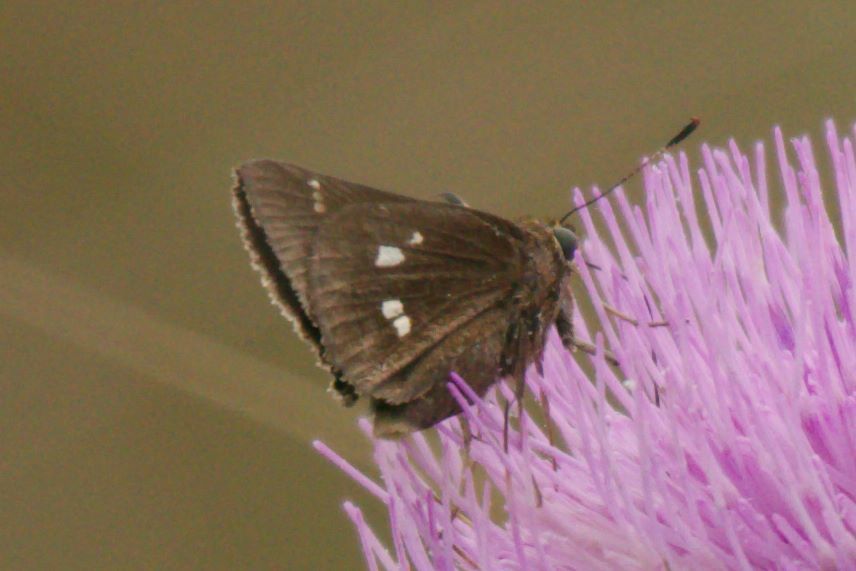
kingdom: Animalia
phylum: Arthropoda
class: Insecta
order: Lepidoptera
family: Hesperiidae
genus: Oligoria
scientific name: Oligoria maculata
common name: Twin-spot skipper
